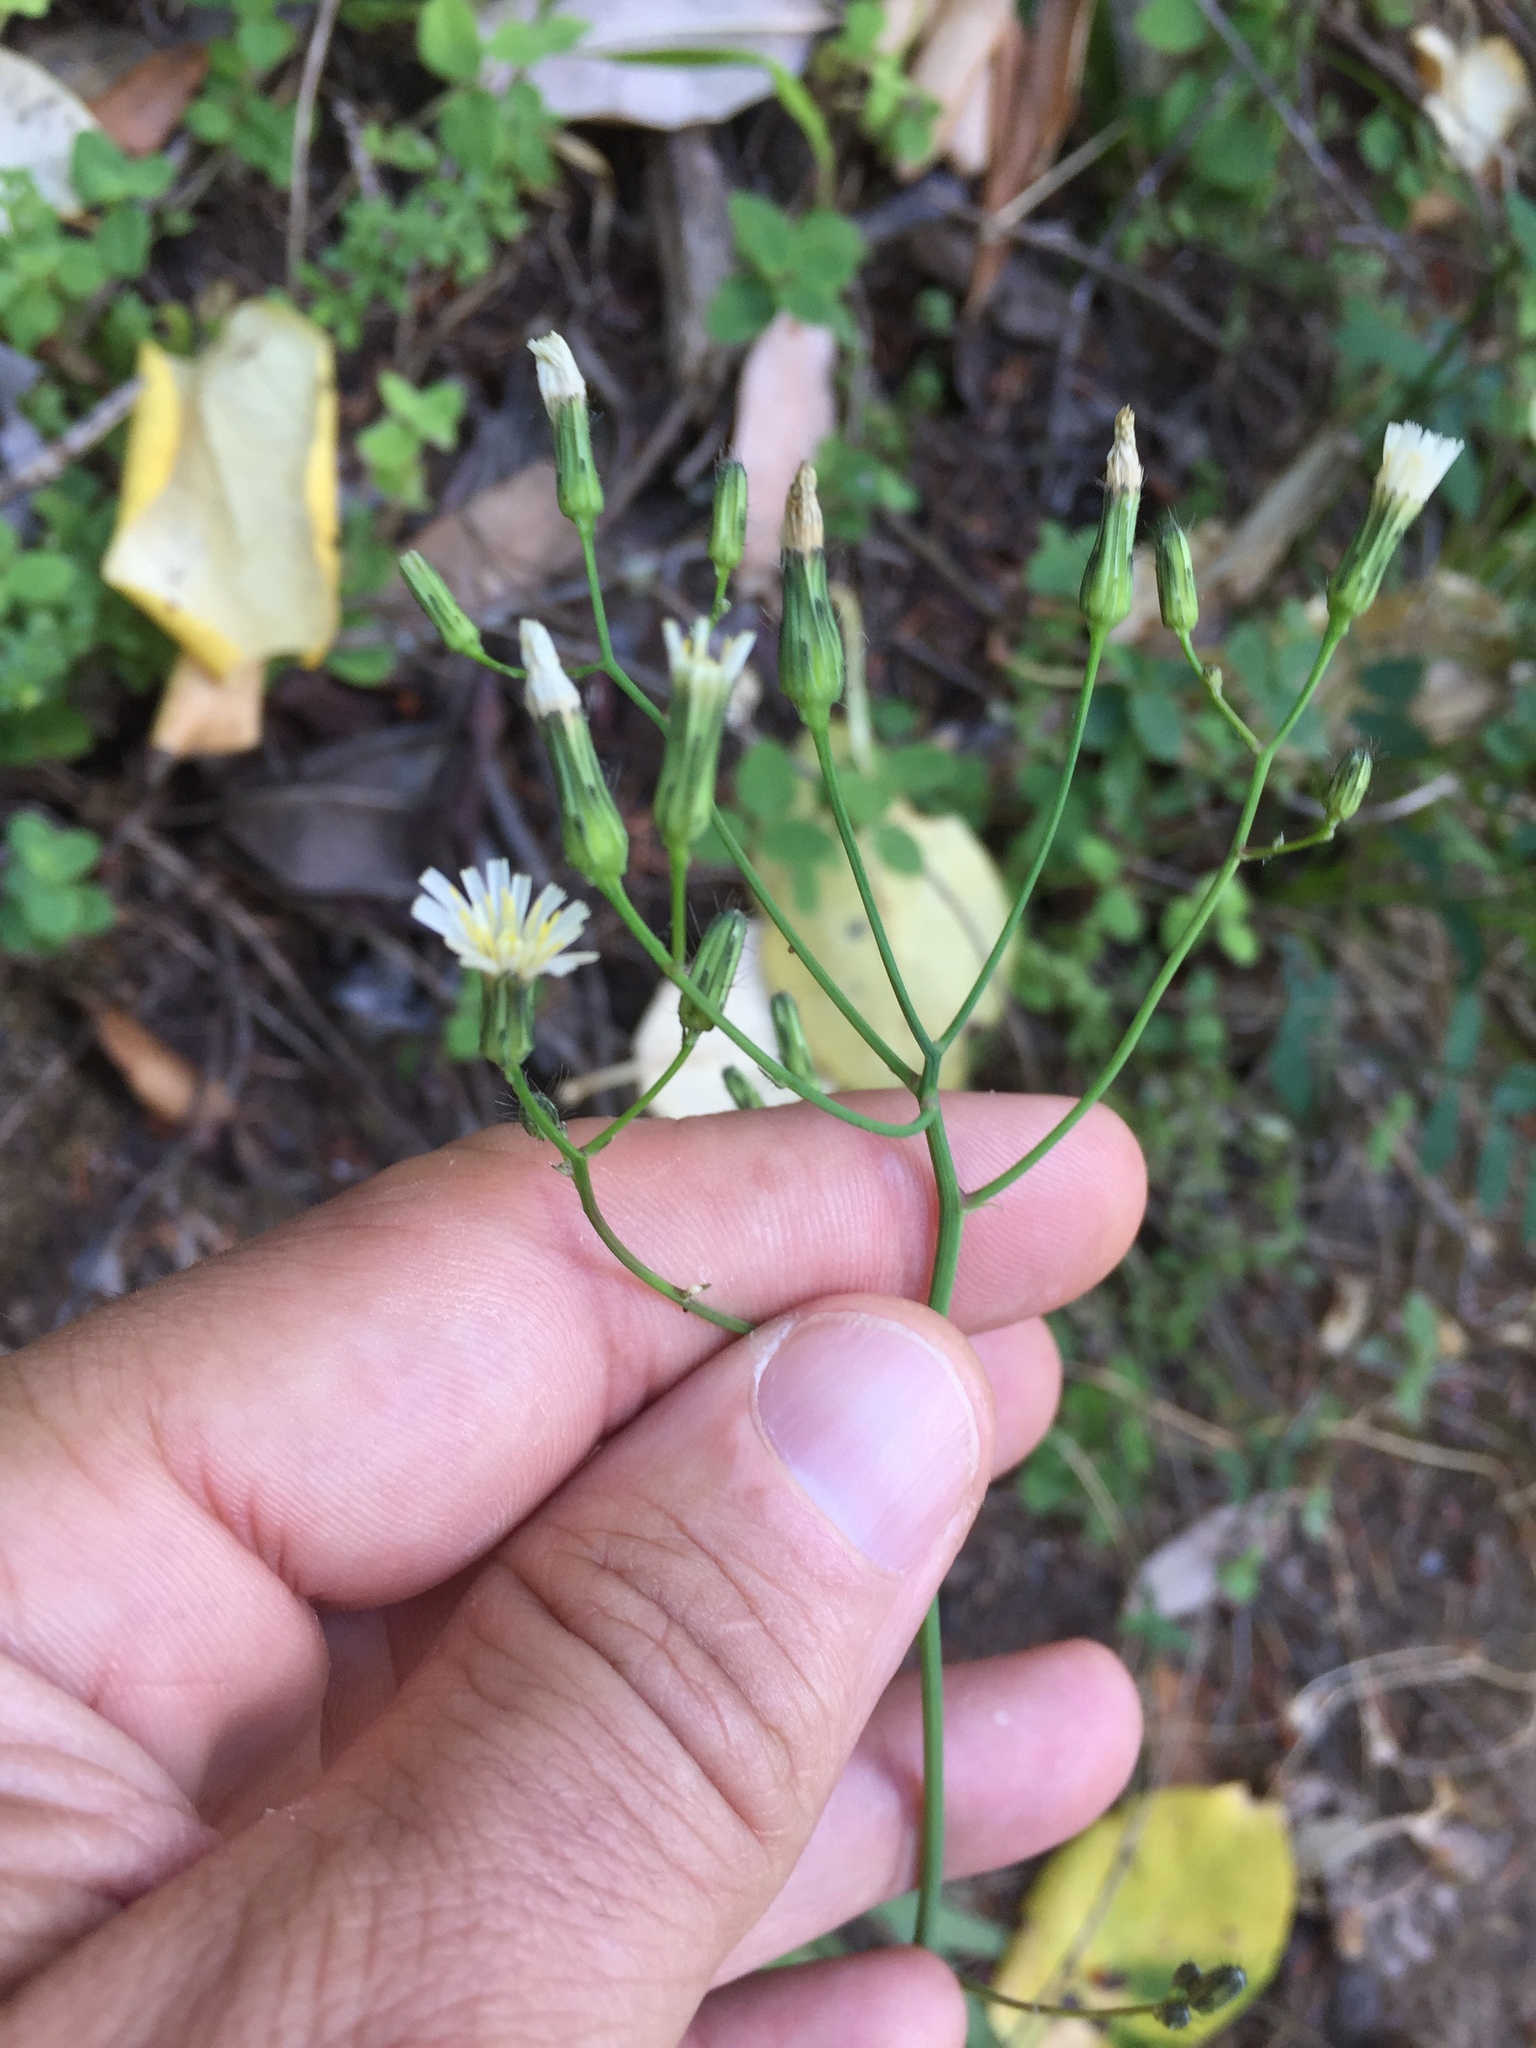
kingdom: Plantae
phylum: Tracheophyta
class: Magnoliopsida
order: Asterales
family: Asteraceae
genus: Hieracium
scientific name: Hieracium albiflorum
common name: White hawkweed
